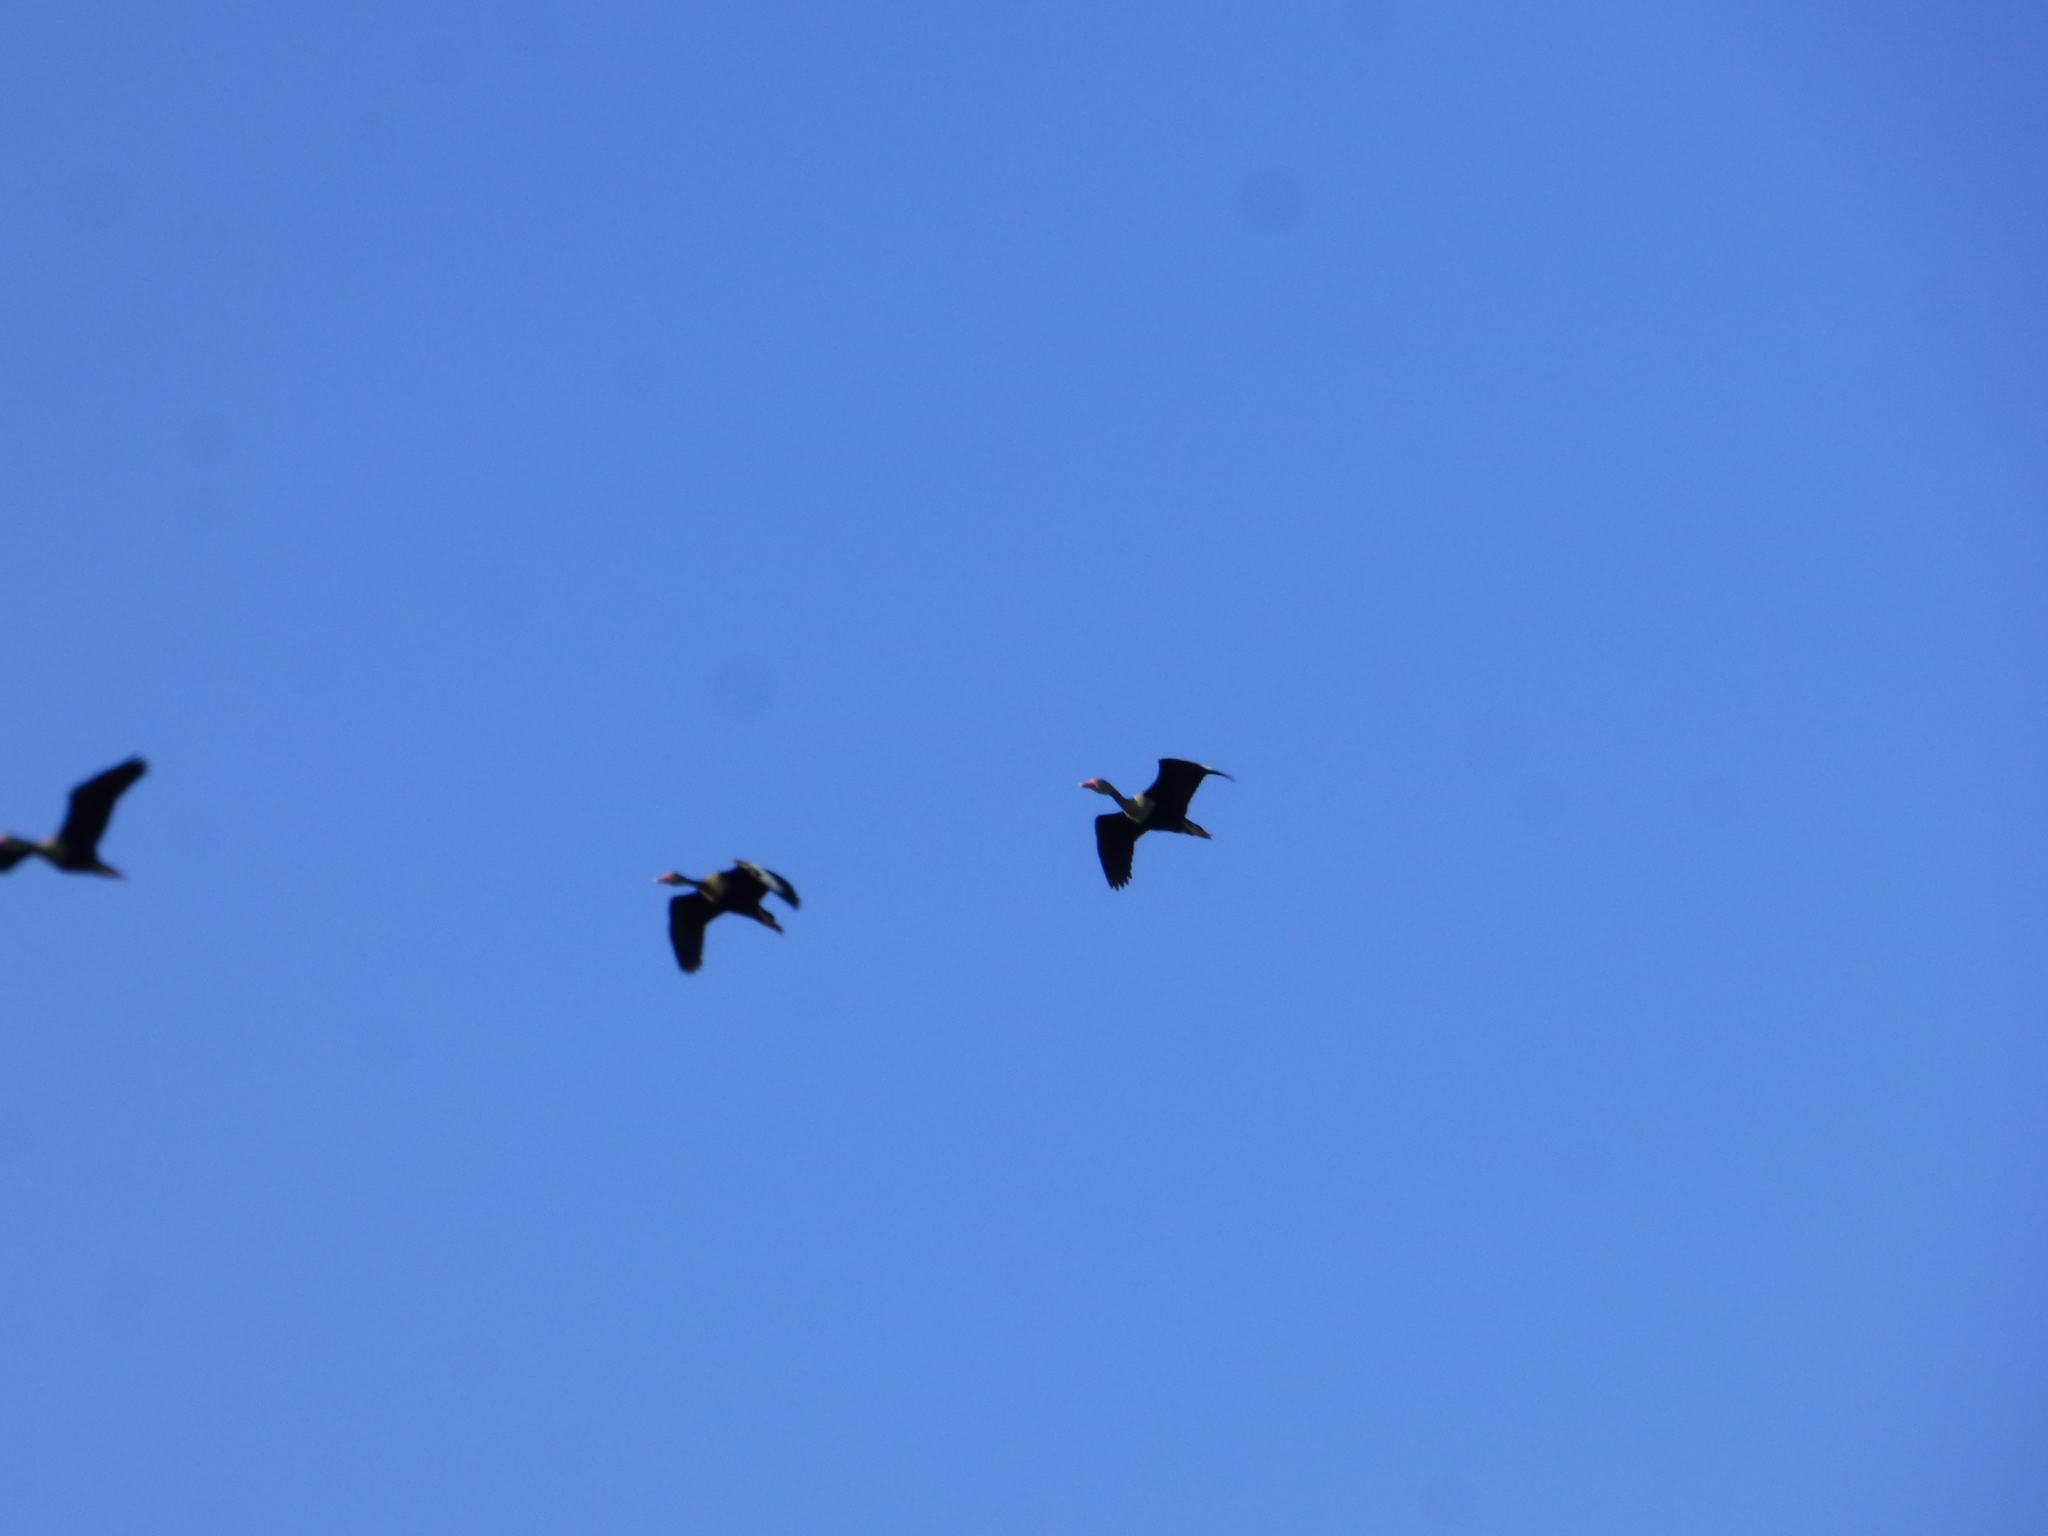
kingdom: Animalia
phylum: Chordata
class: Aves
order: Anseriformes
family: Anatidae
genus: Dendrocygna
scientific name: Dendrocygna autumnalis
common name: Black-bellied whistling duck
